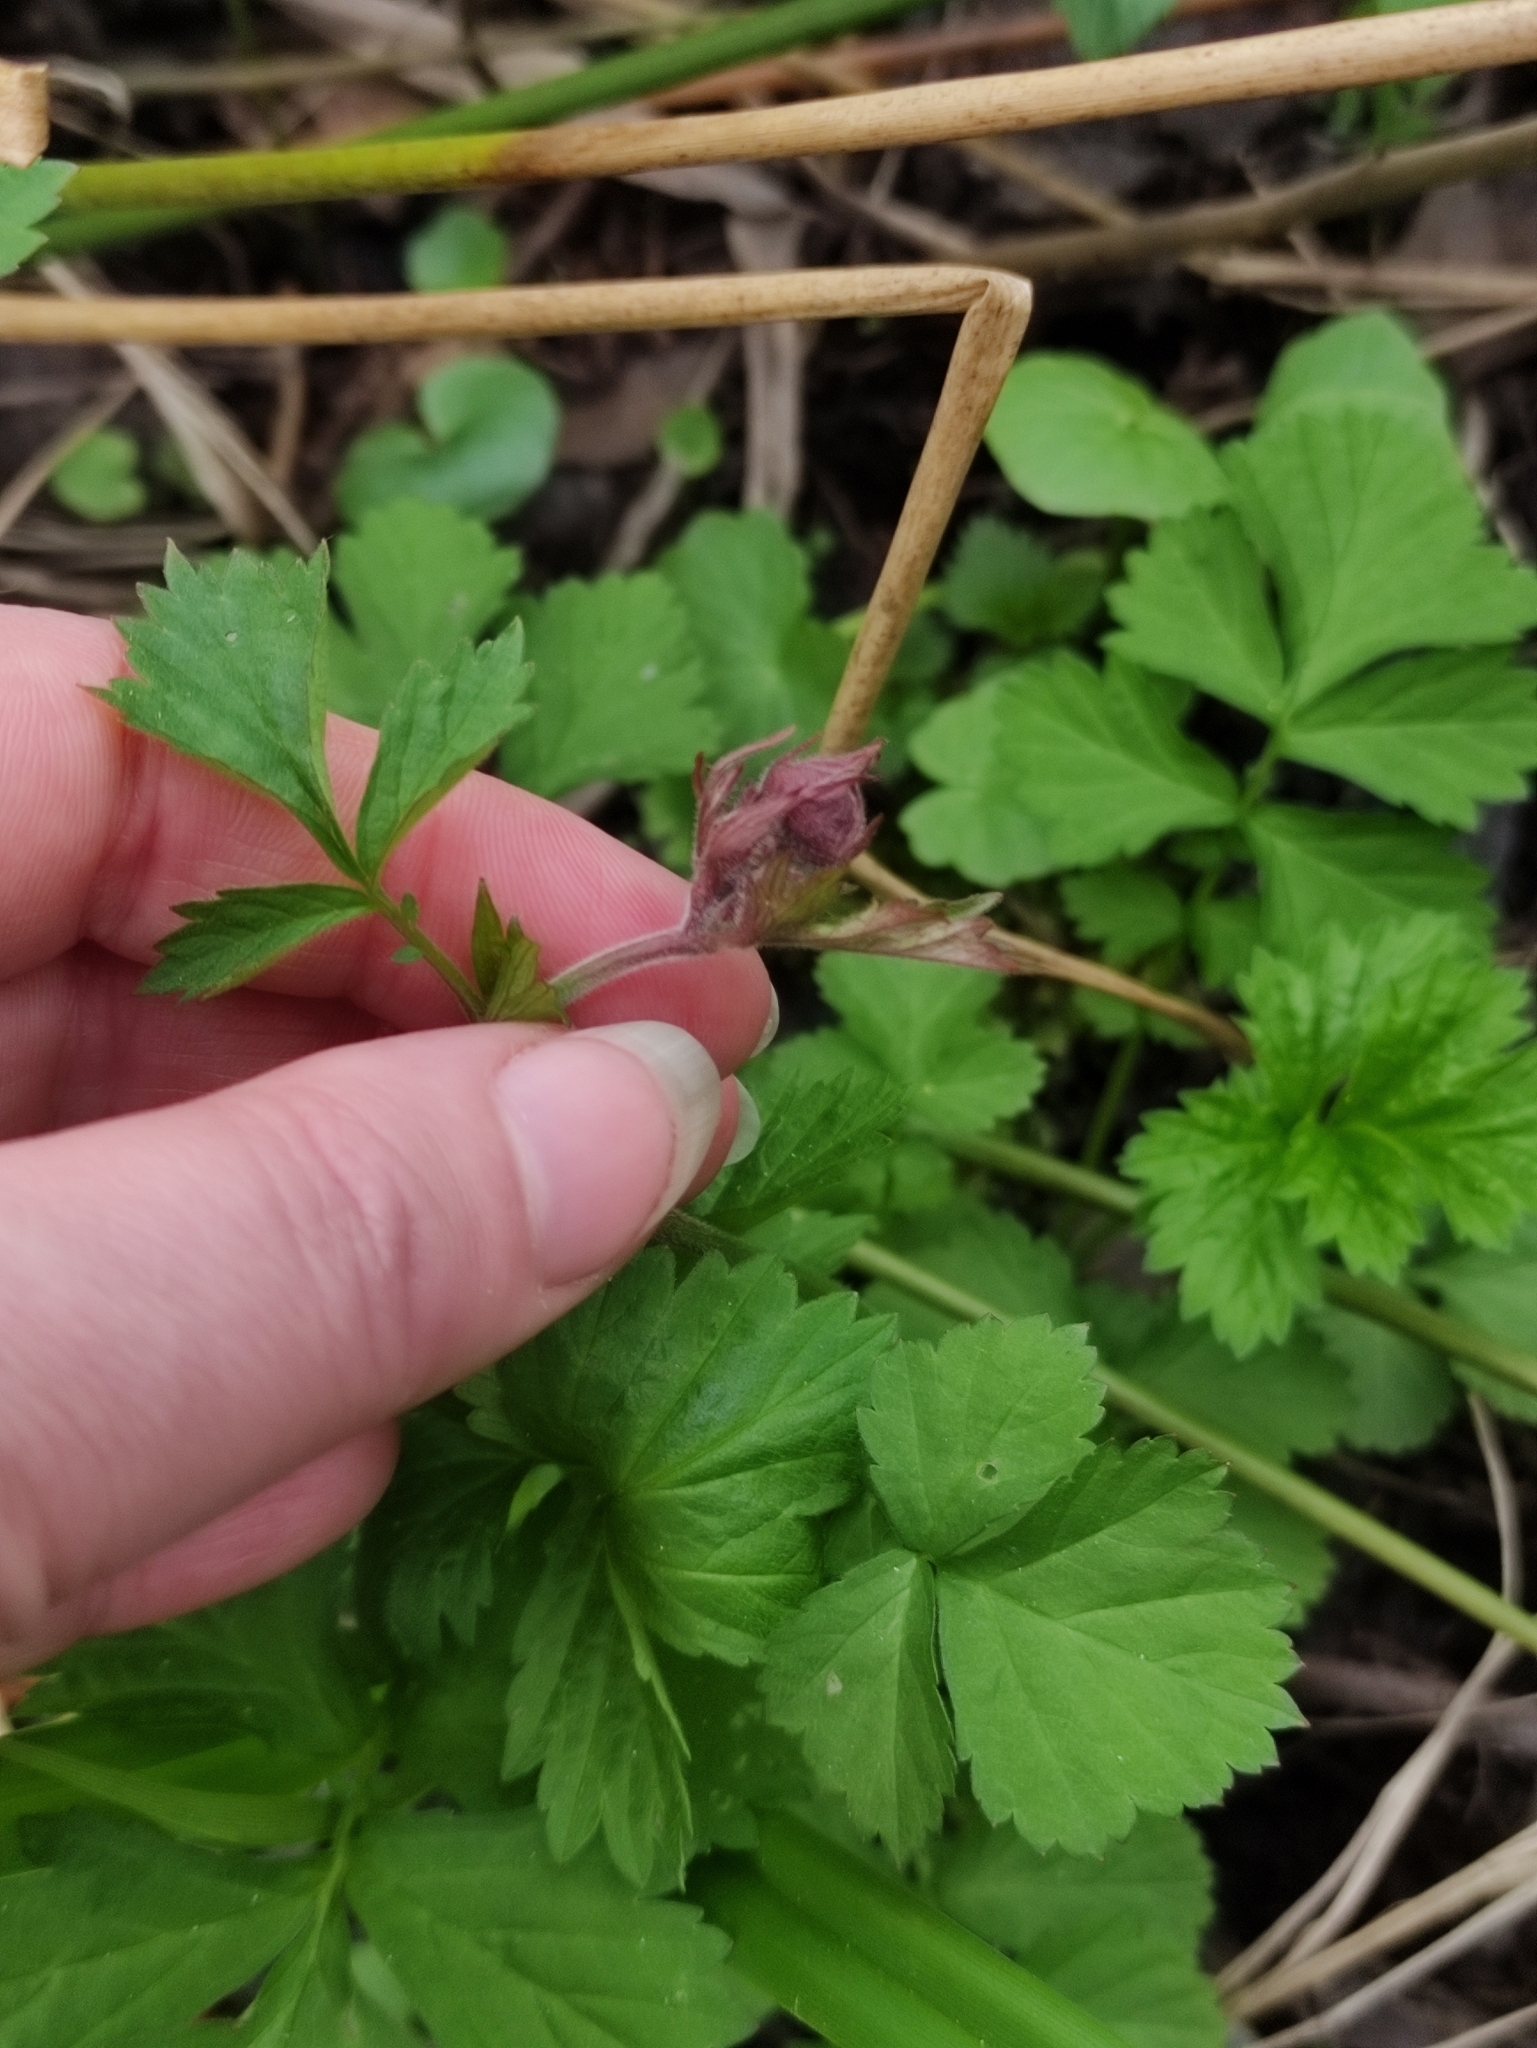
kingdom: Plantae
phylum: Tracheophyta
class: Magnoliopsida
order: Rosales
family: Rosaceae
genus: Geum
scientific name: Geum rivale
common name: Water avens
